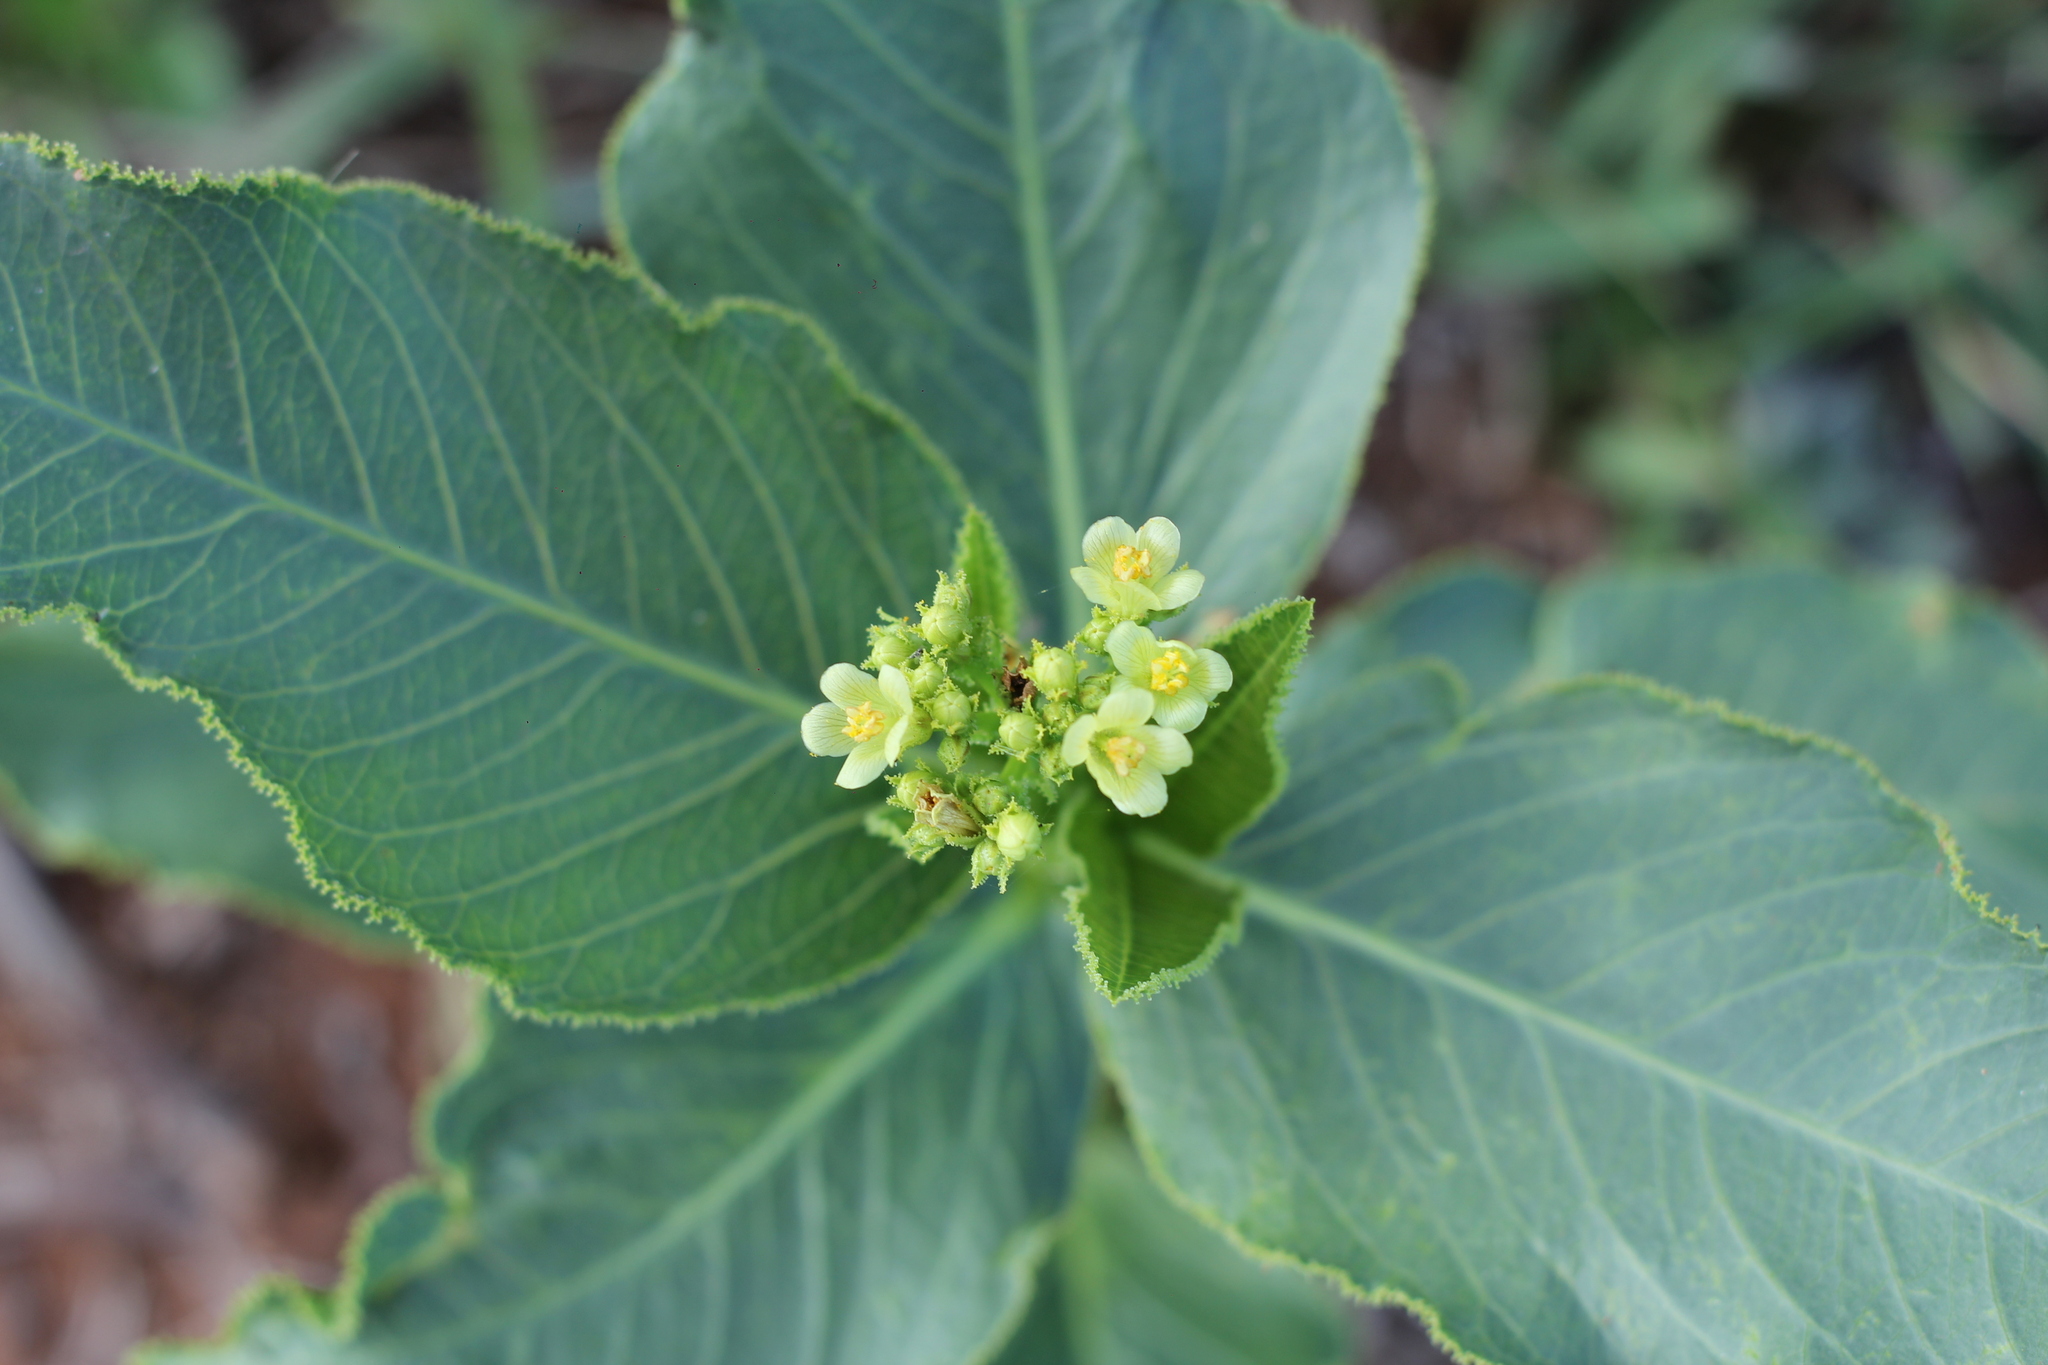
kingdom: Plantae
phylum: Tracheophyta
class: Magnoliopsida
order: Malpighiales
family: Euphorbiaceae
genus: Jatropha
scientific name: Jatropha isabellei
